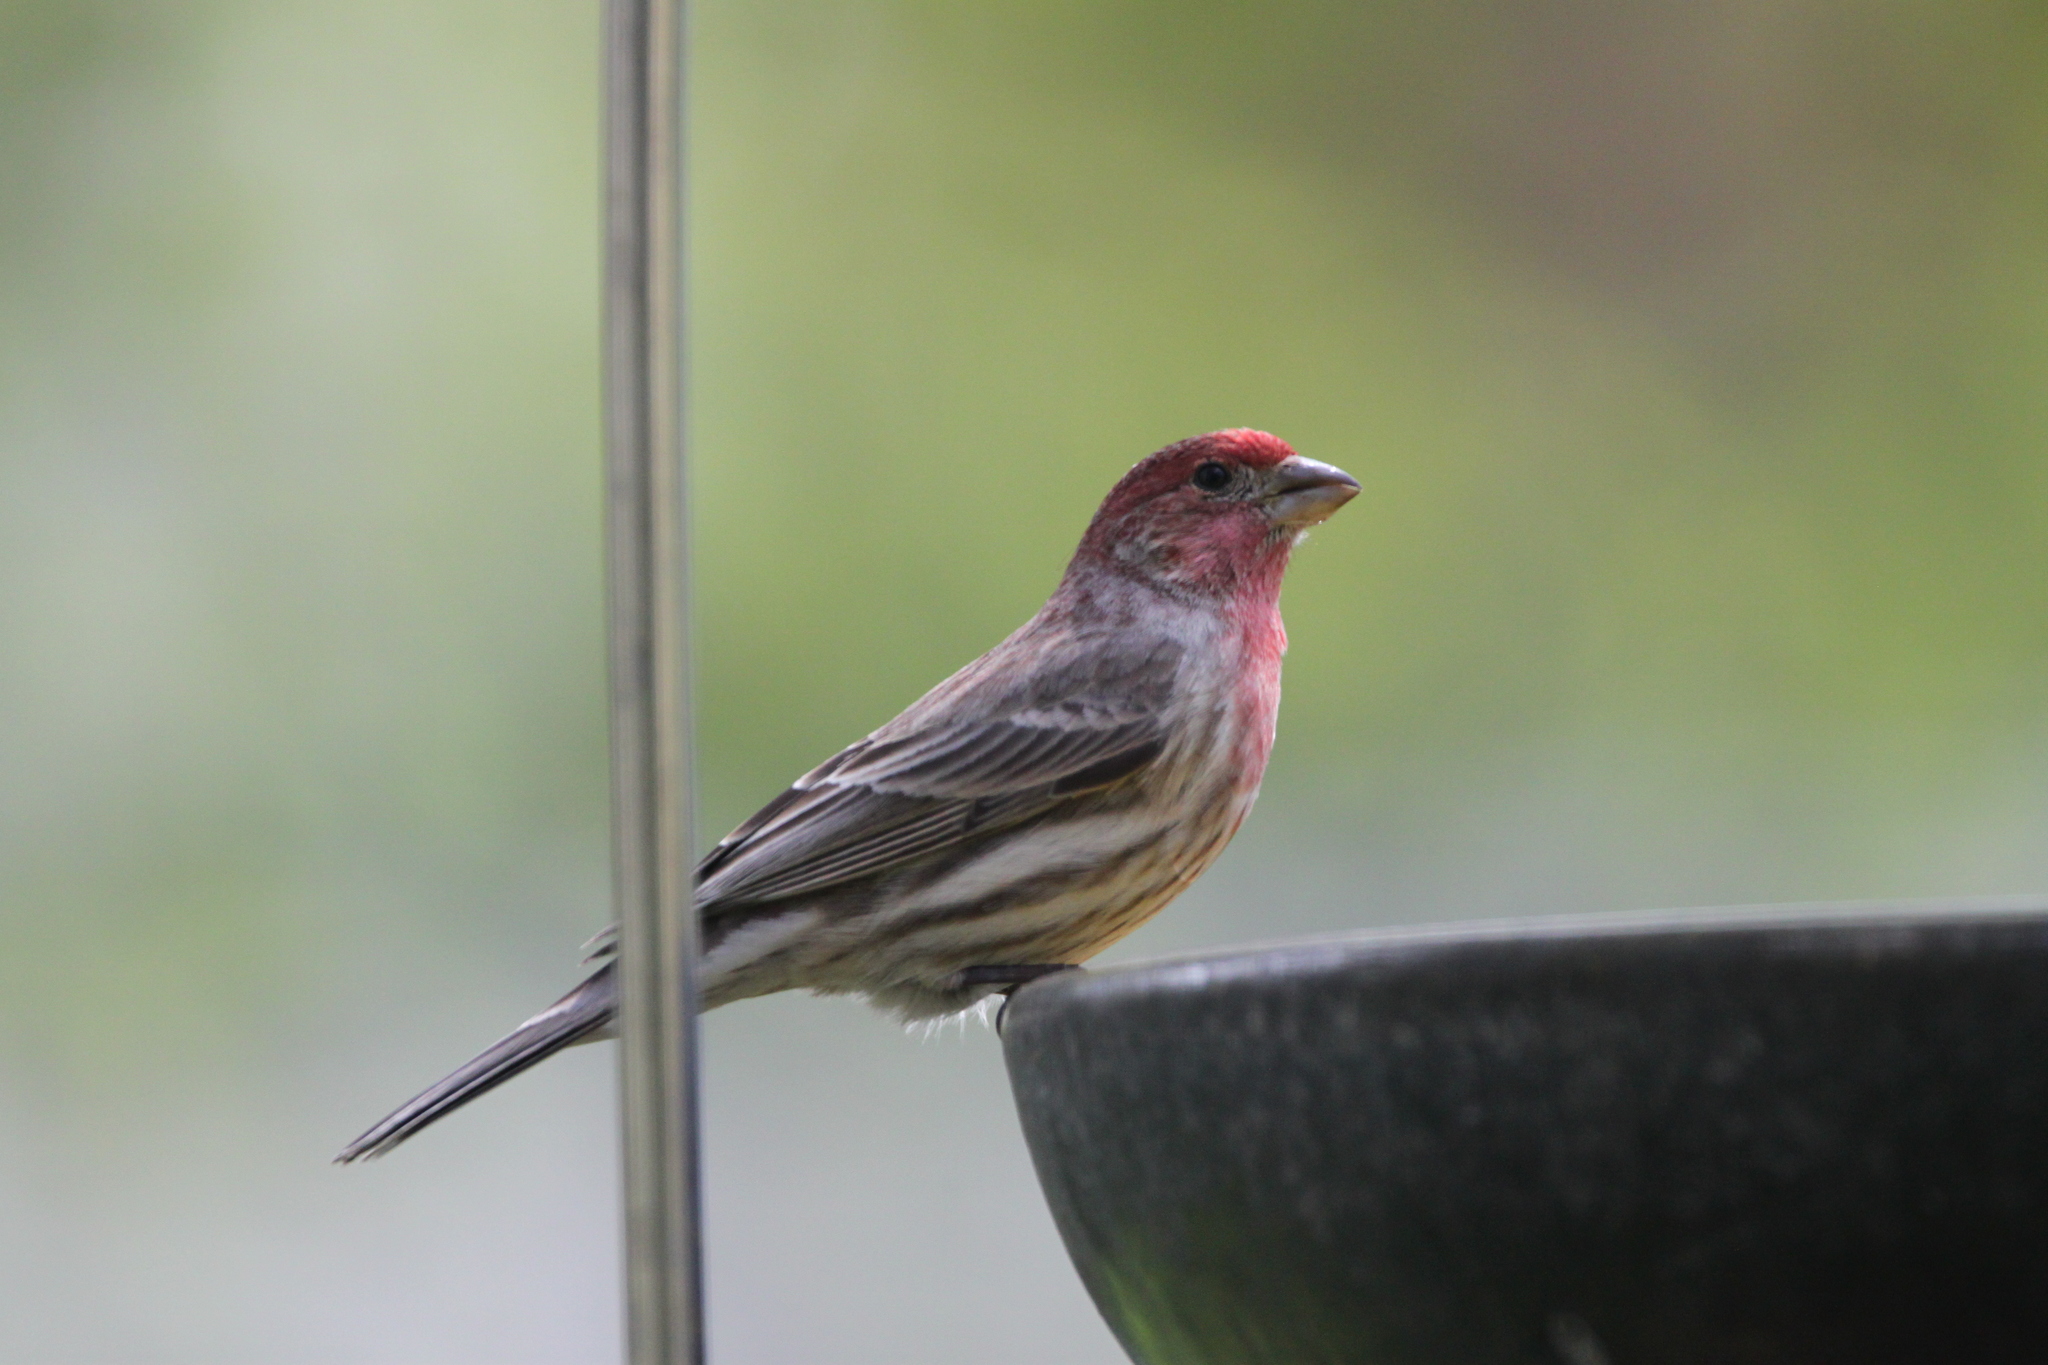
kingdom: Animalia
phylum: Chordata
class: Aves
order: Passeriformes
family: Fringillidae
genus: Haemorhous
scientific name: Haemorhous mexicanus
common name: House finch
